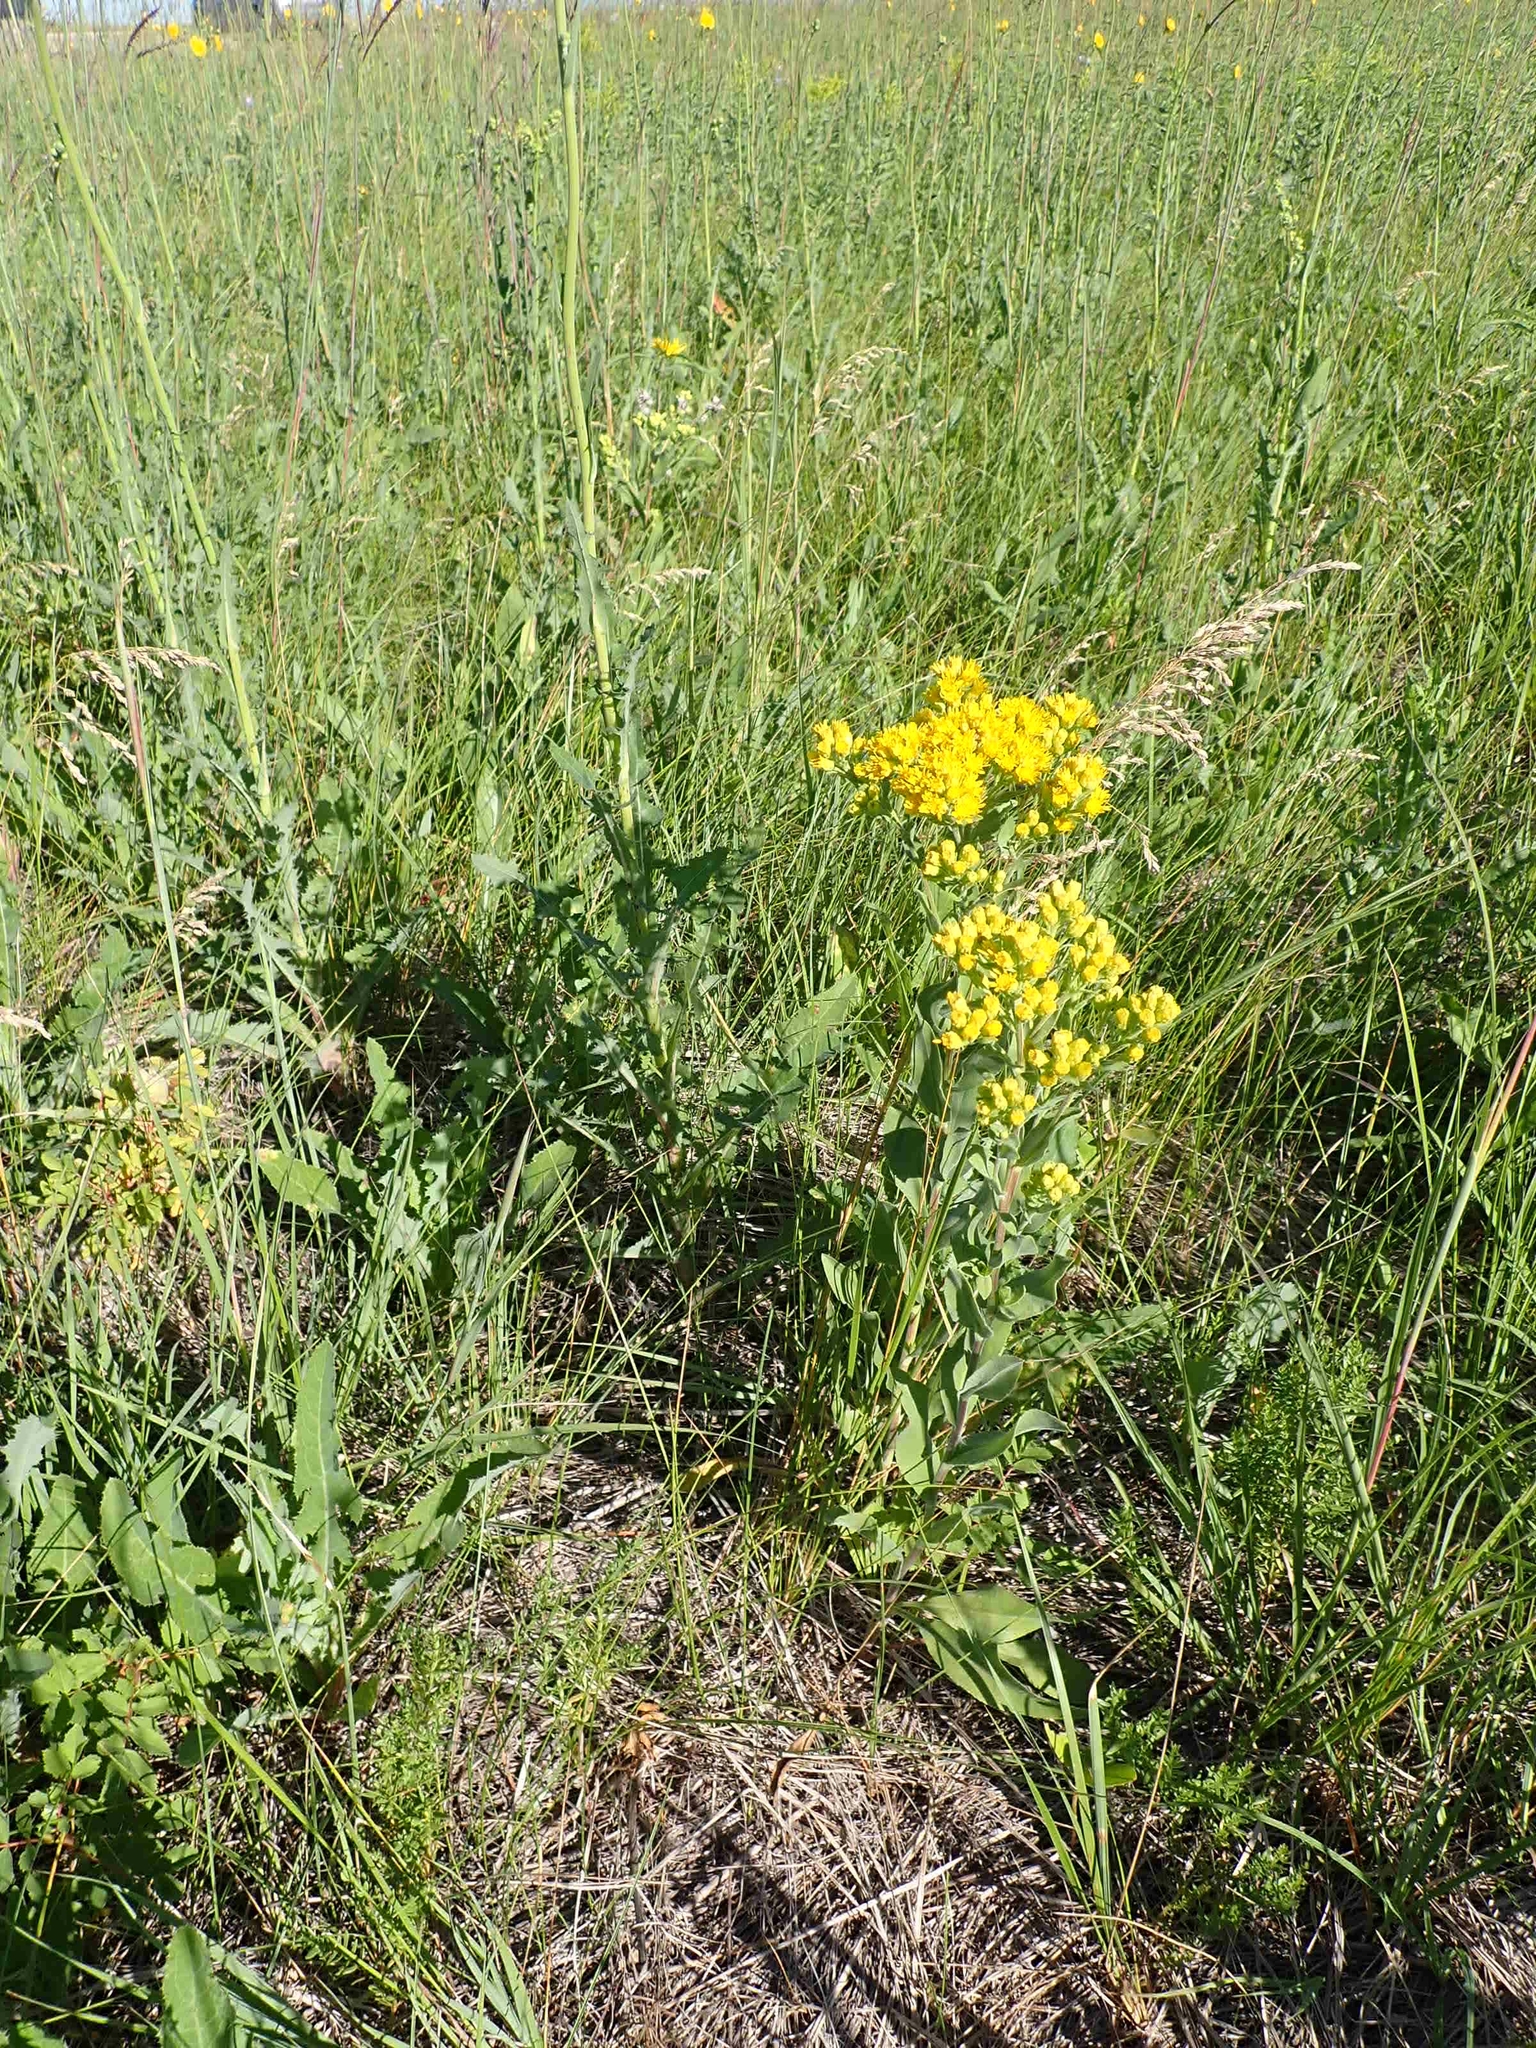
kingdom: Plantae
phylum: Tracheophyta
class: Magnoliopsida
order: Asterales
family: Asteraceae
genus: Solidago
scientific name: Solidago rigida
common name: Rigid goldenrod
